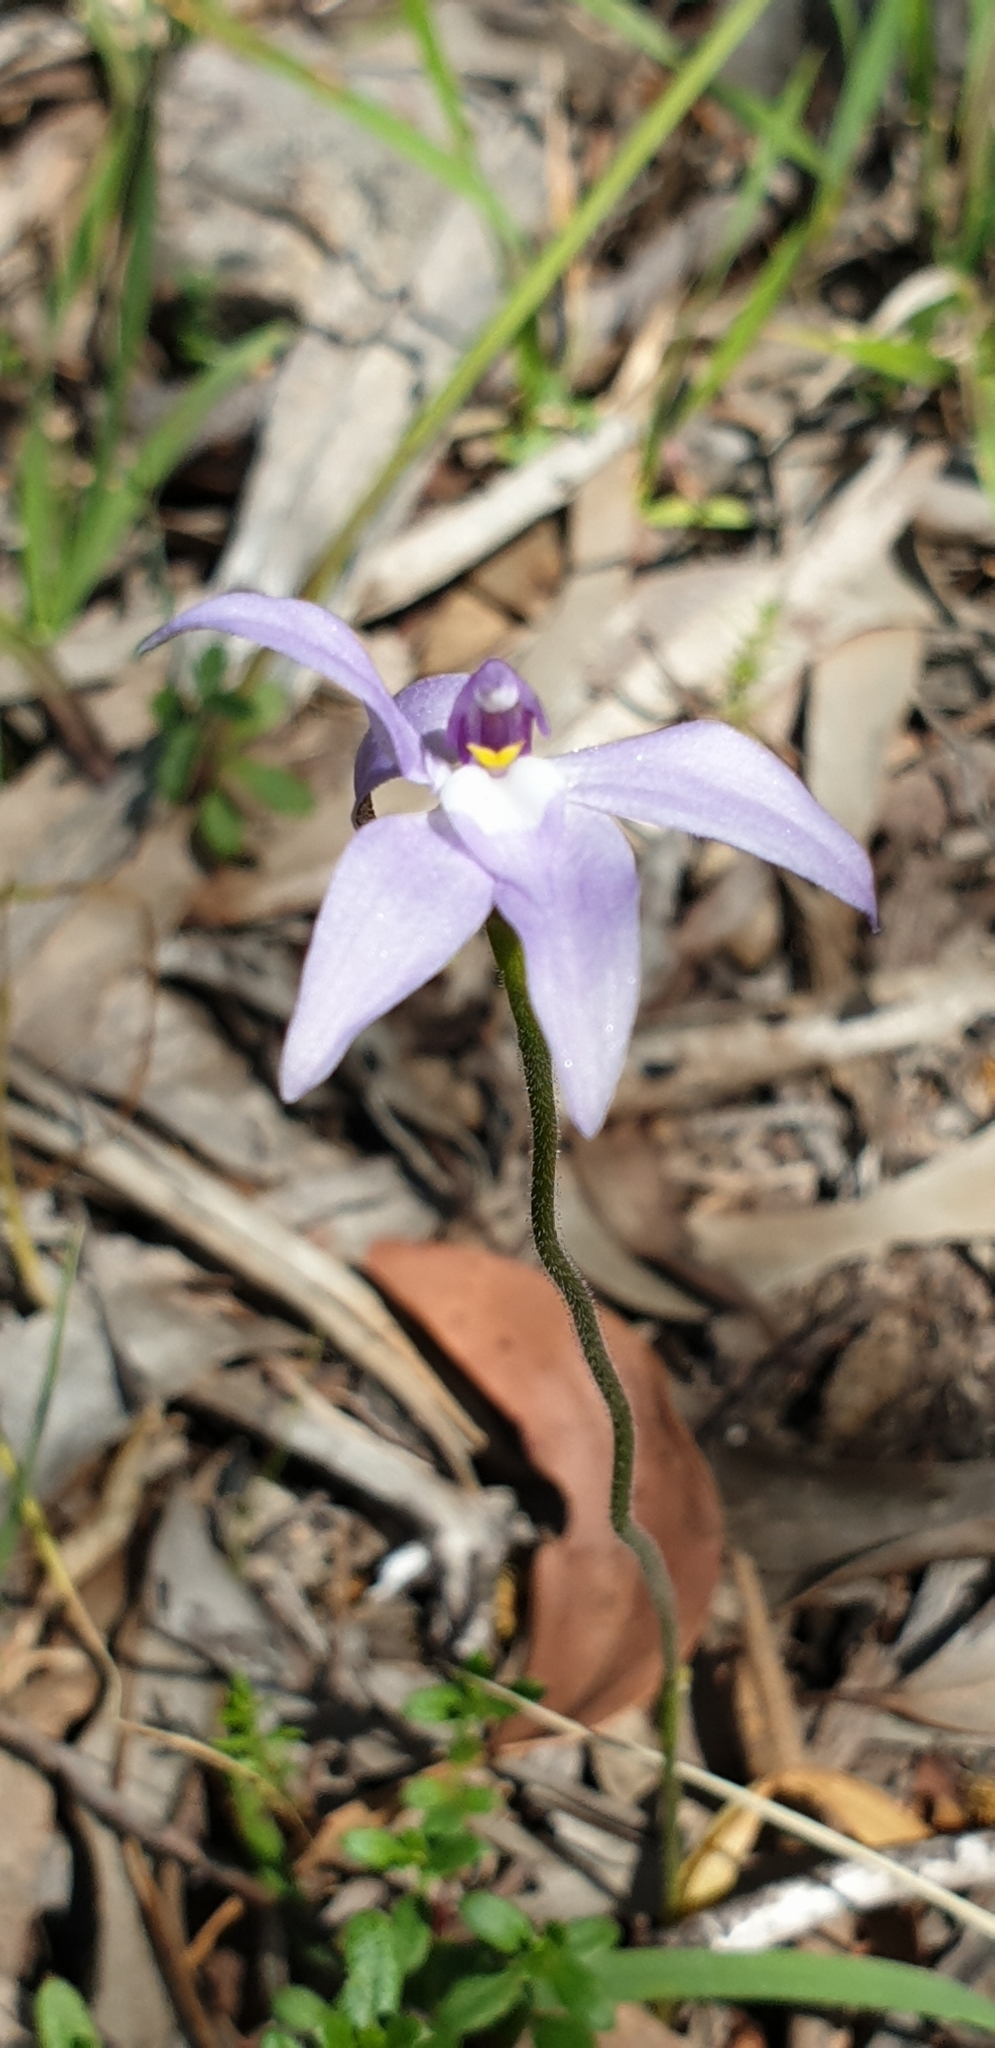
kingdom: Plantae
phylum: Tracheophyta
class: Liliopsida
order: Asparagales
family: Orchidaceae
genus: Caladenia
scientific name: Caladenia major
